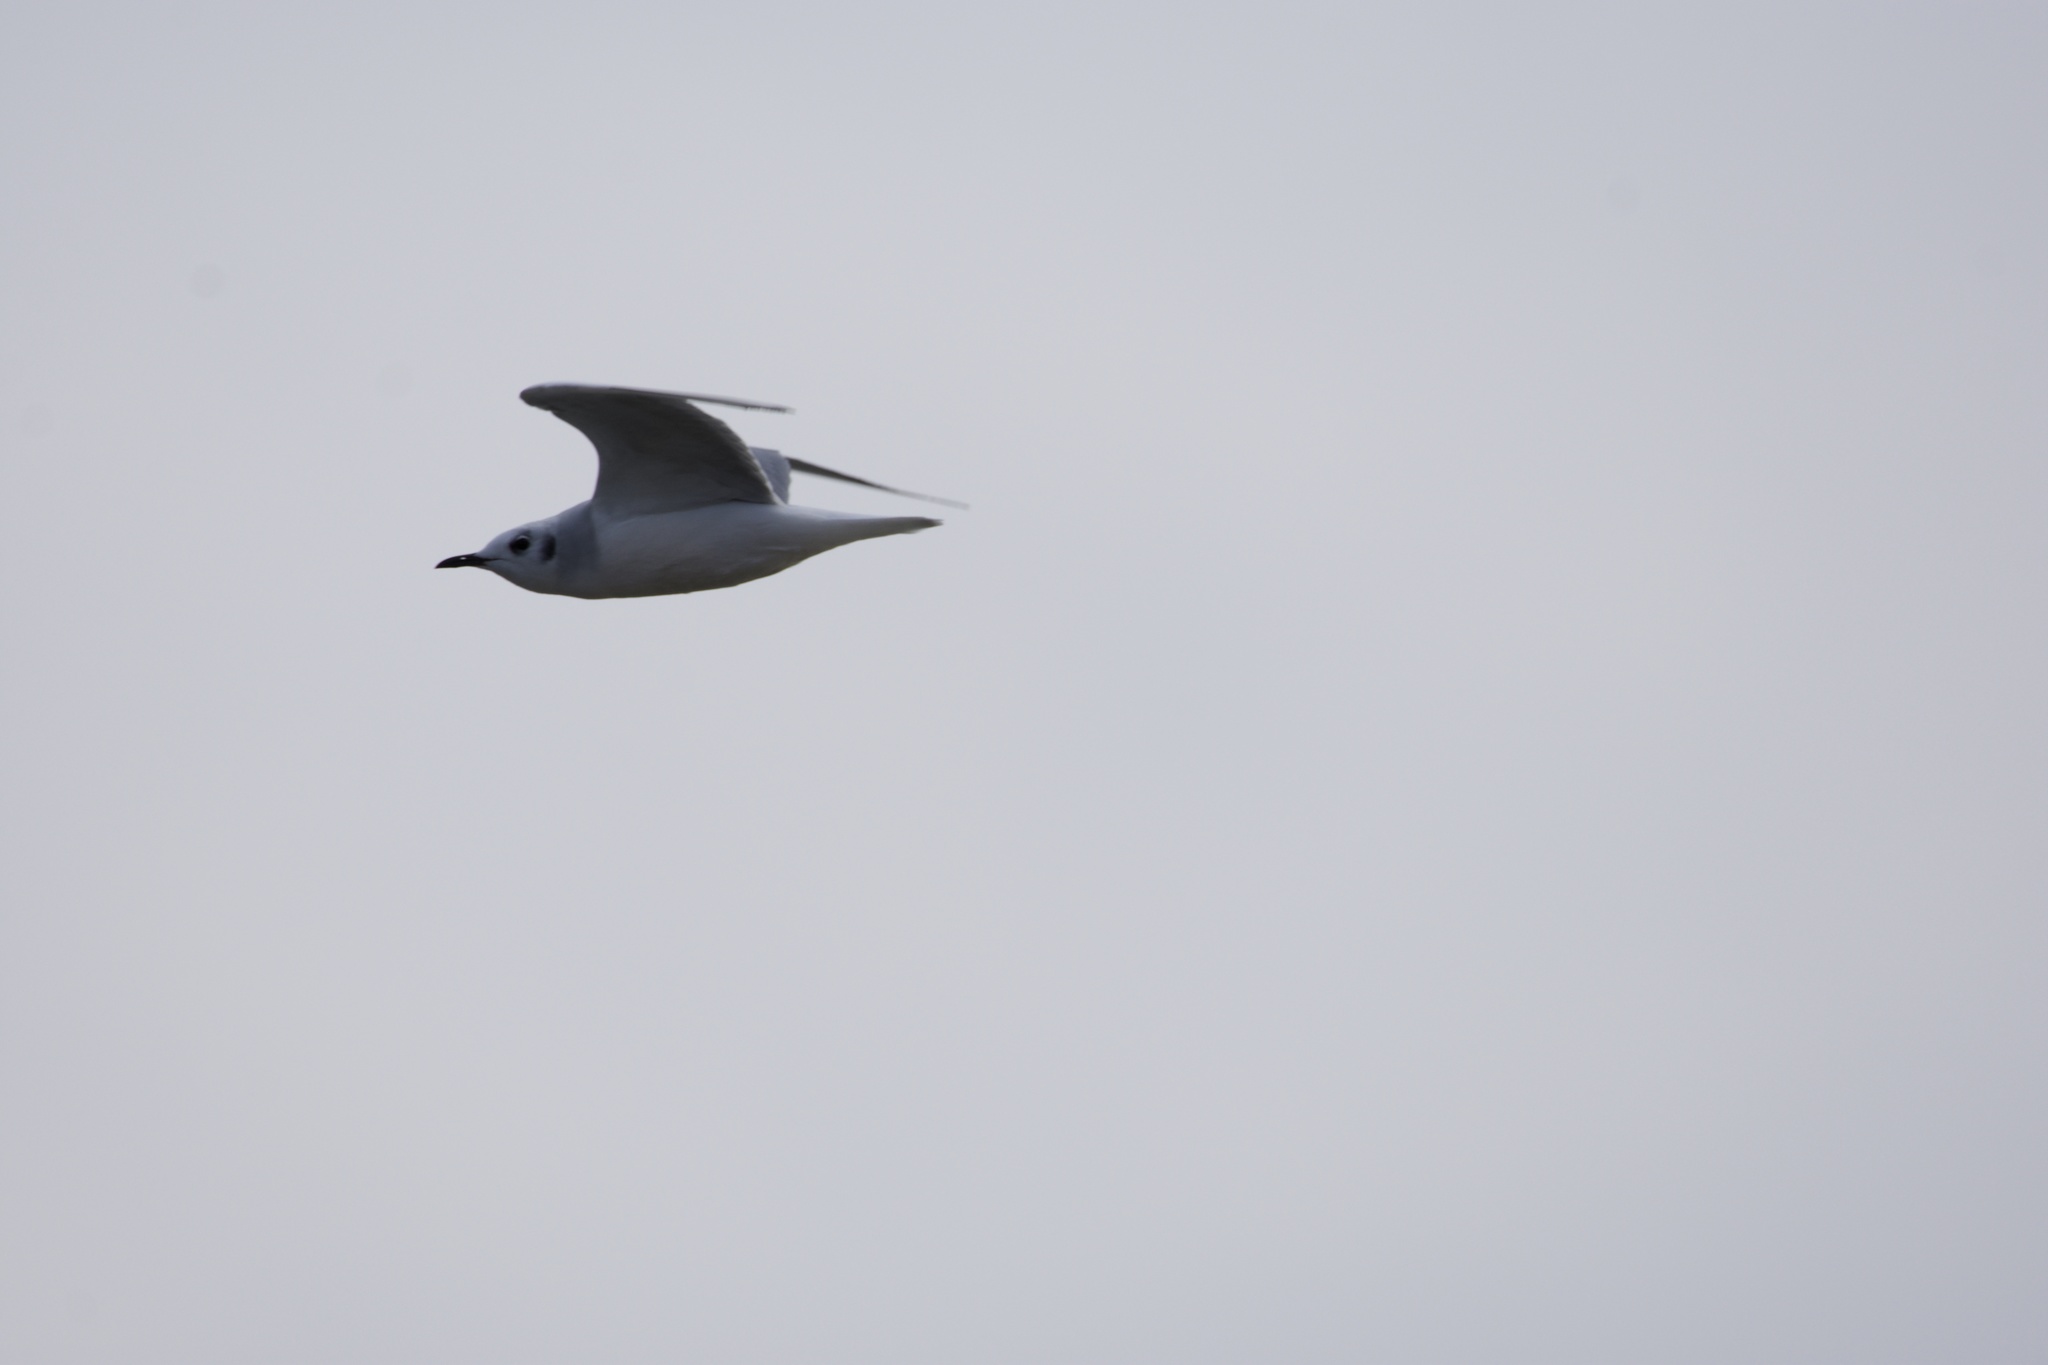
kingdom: Animalia
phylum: Chordata
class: Aves
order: Charadriiformes
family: Laridae
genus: Chroicocephalus
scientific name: Chroicocephalus philadelphia
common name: Bonaparte's gull
